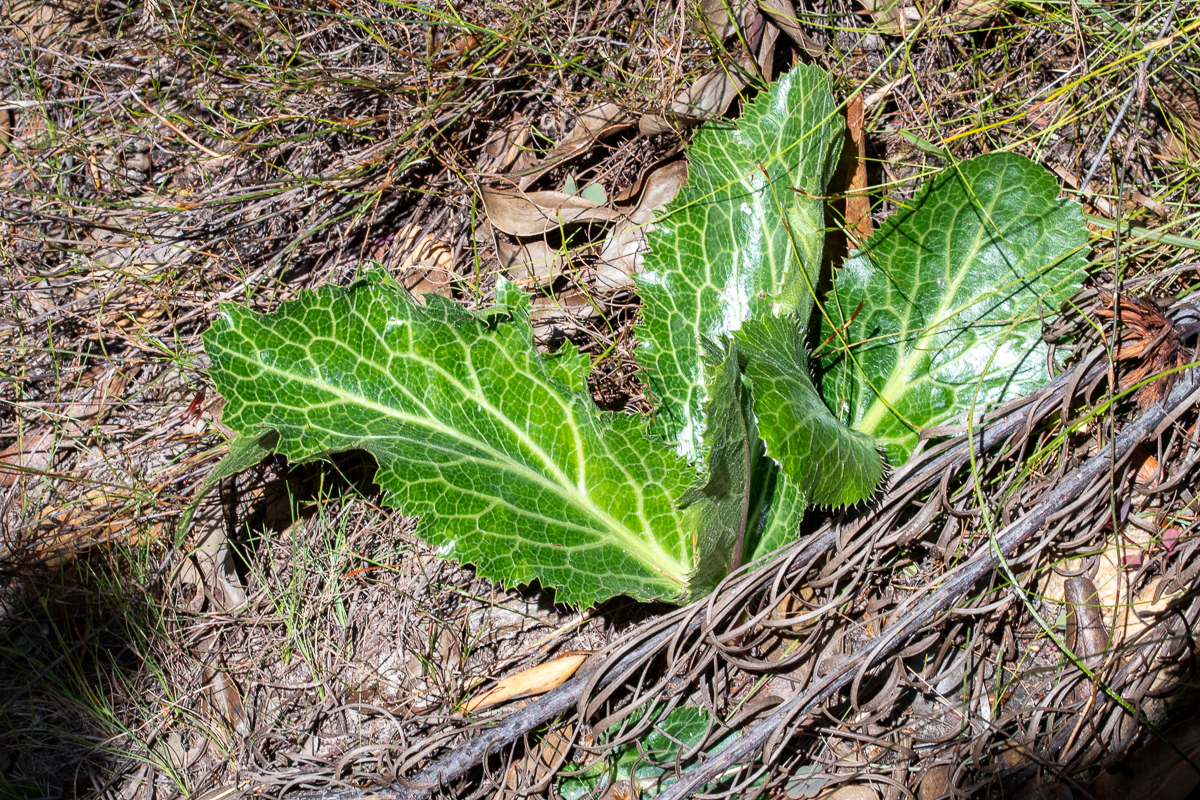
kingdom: Plantae
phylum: Tracheophyta
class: Magnoliopsida
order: Apiales
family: Apiaceae
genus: Lichtensteinia
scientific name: Lichtensteinia lacera
